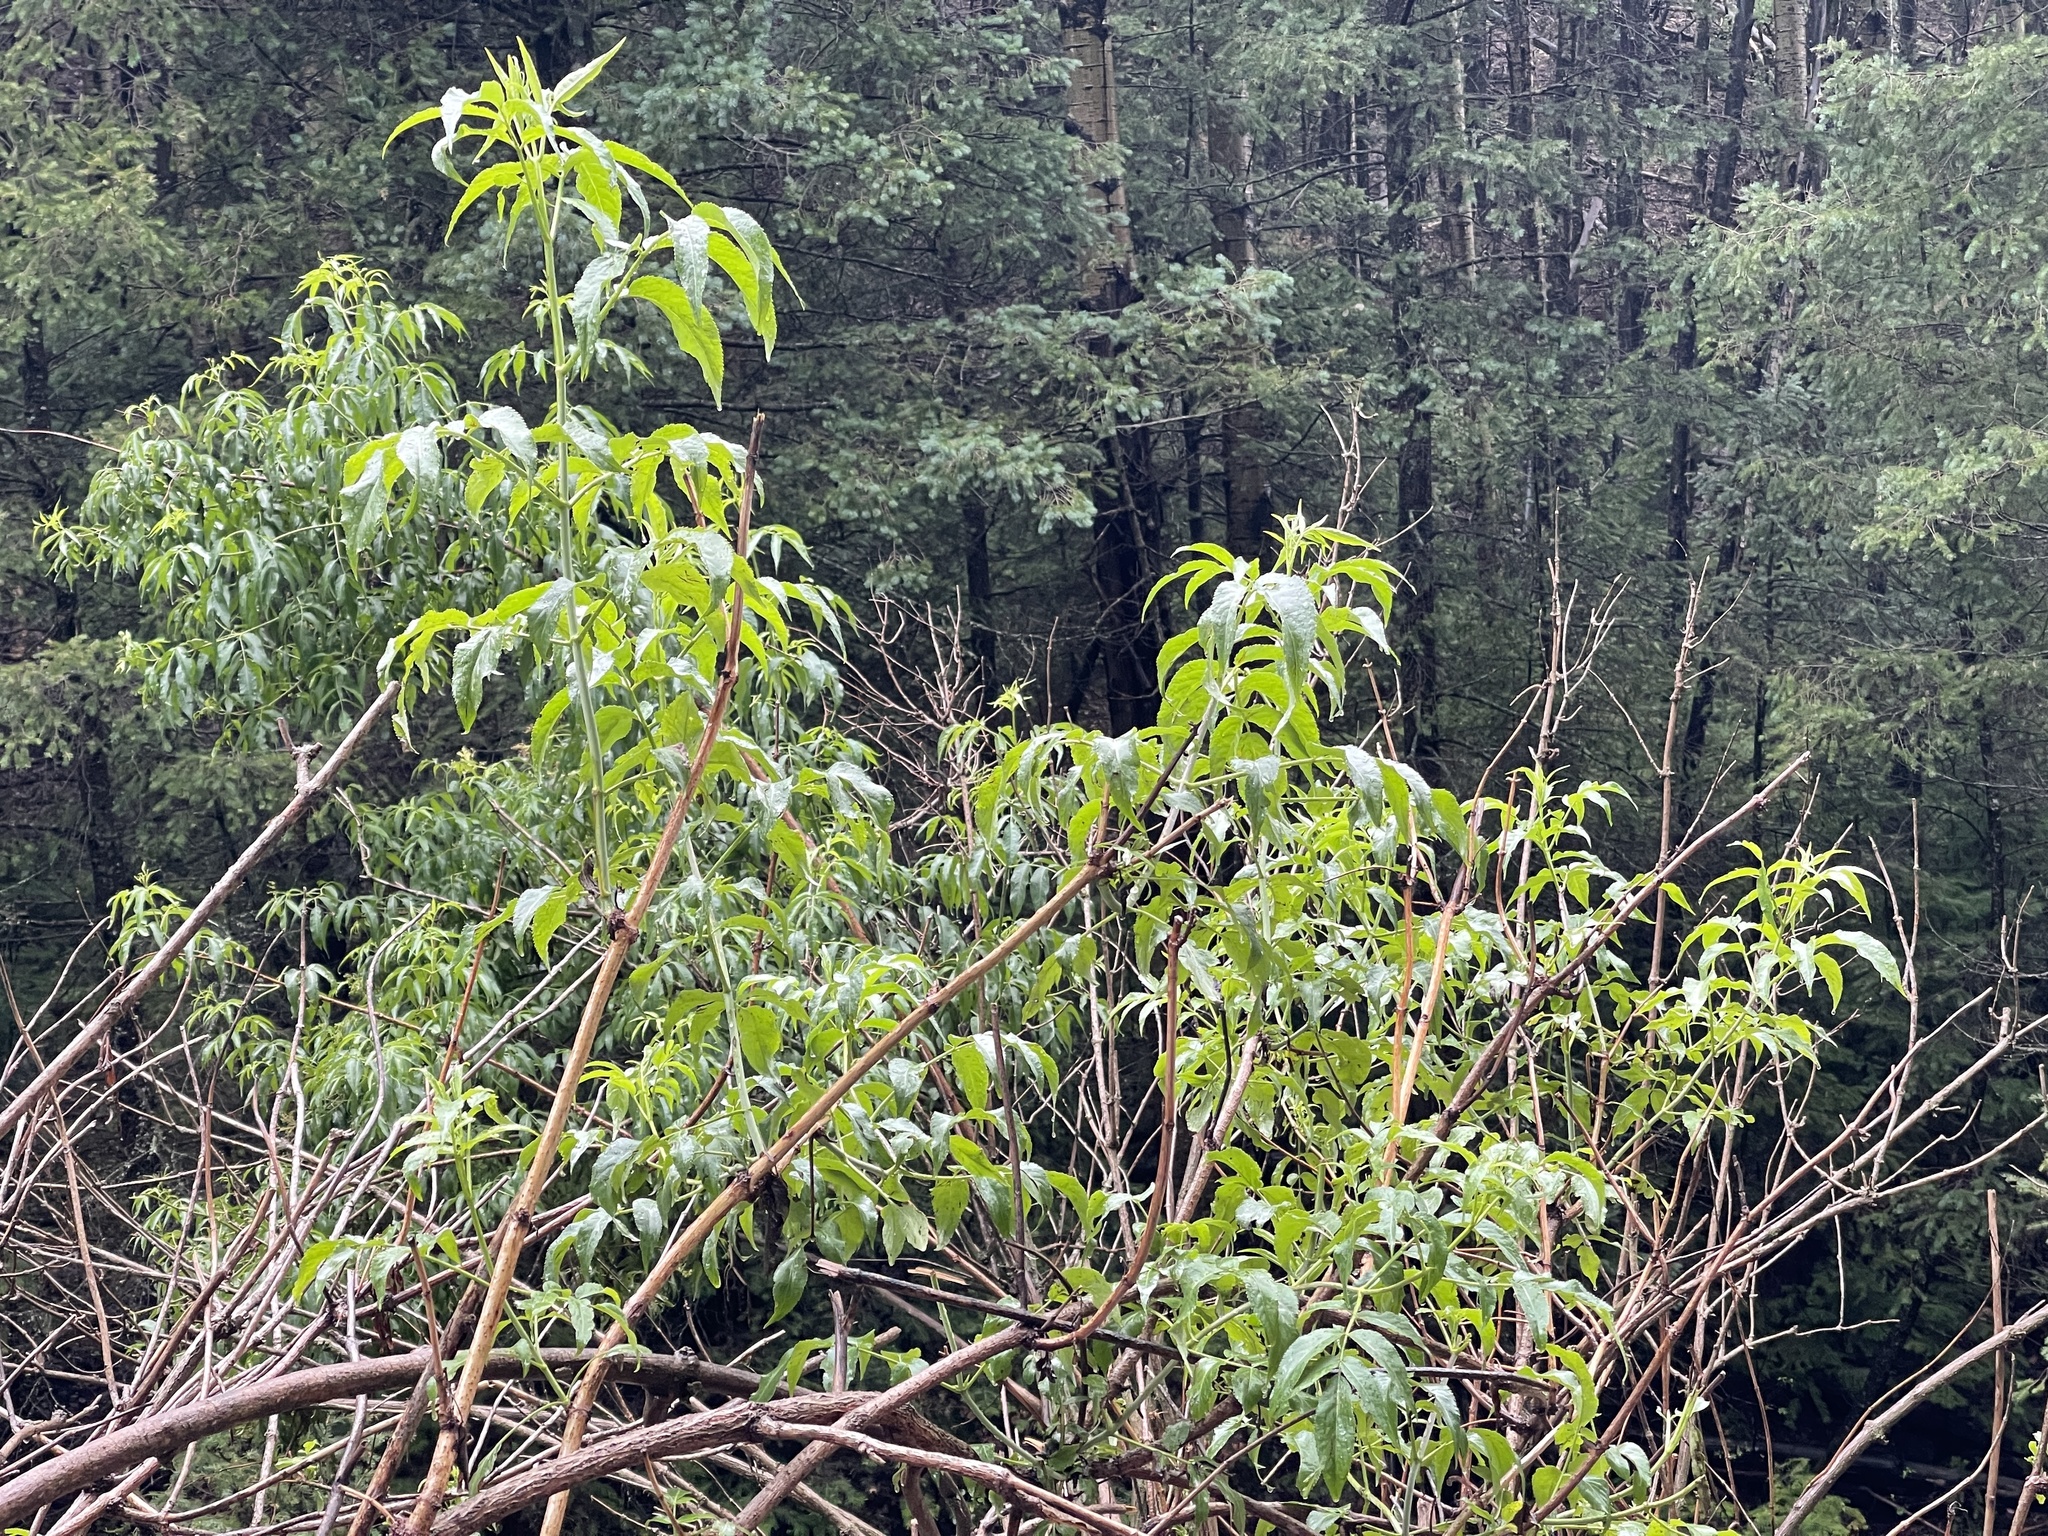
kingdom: Plantae
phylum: Tracheophyta
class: Magnoliopsida
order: Dipsacales
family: Viburnaceae
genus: Sambucus
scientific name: Sambucus cerulea
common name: Blue elder
